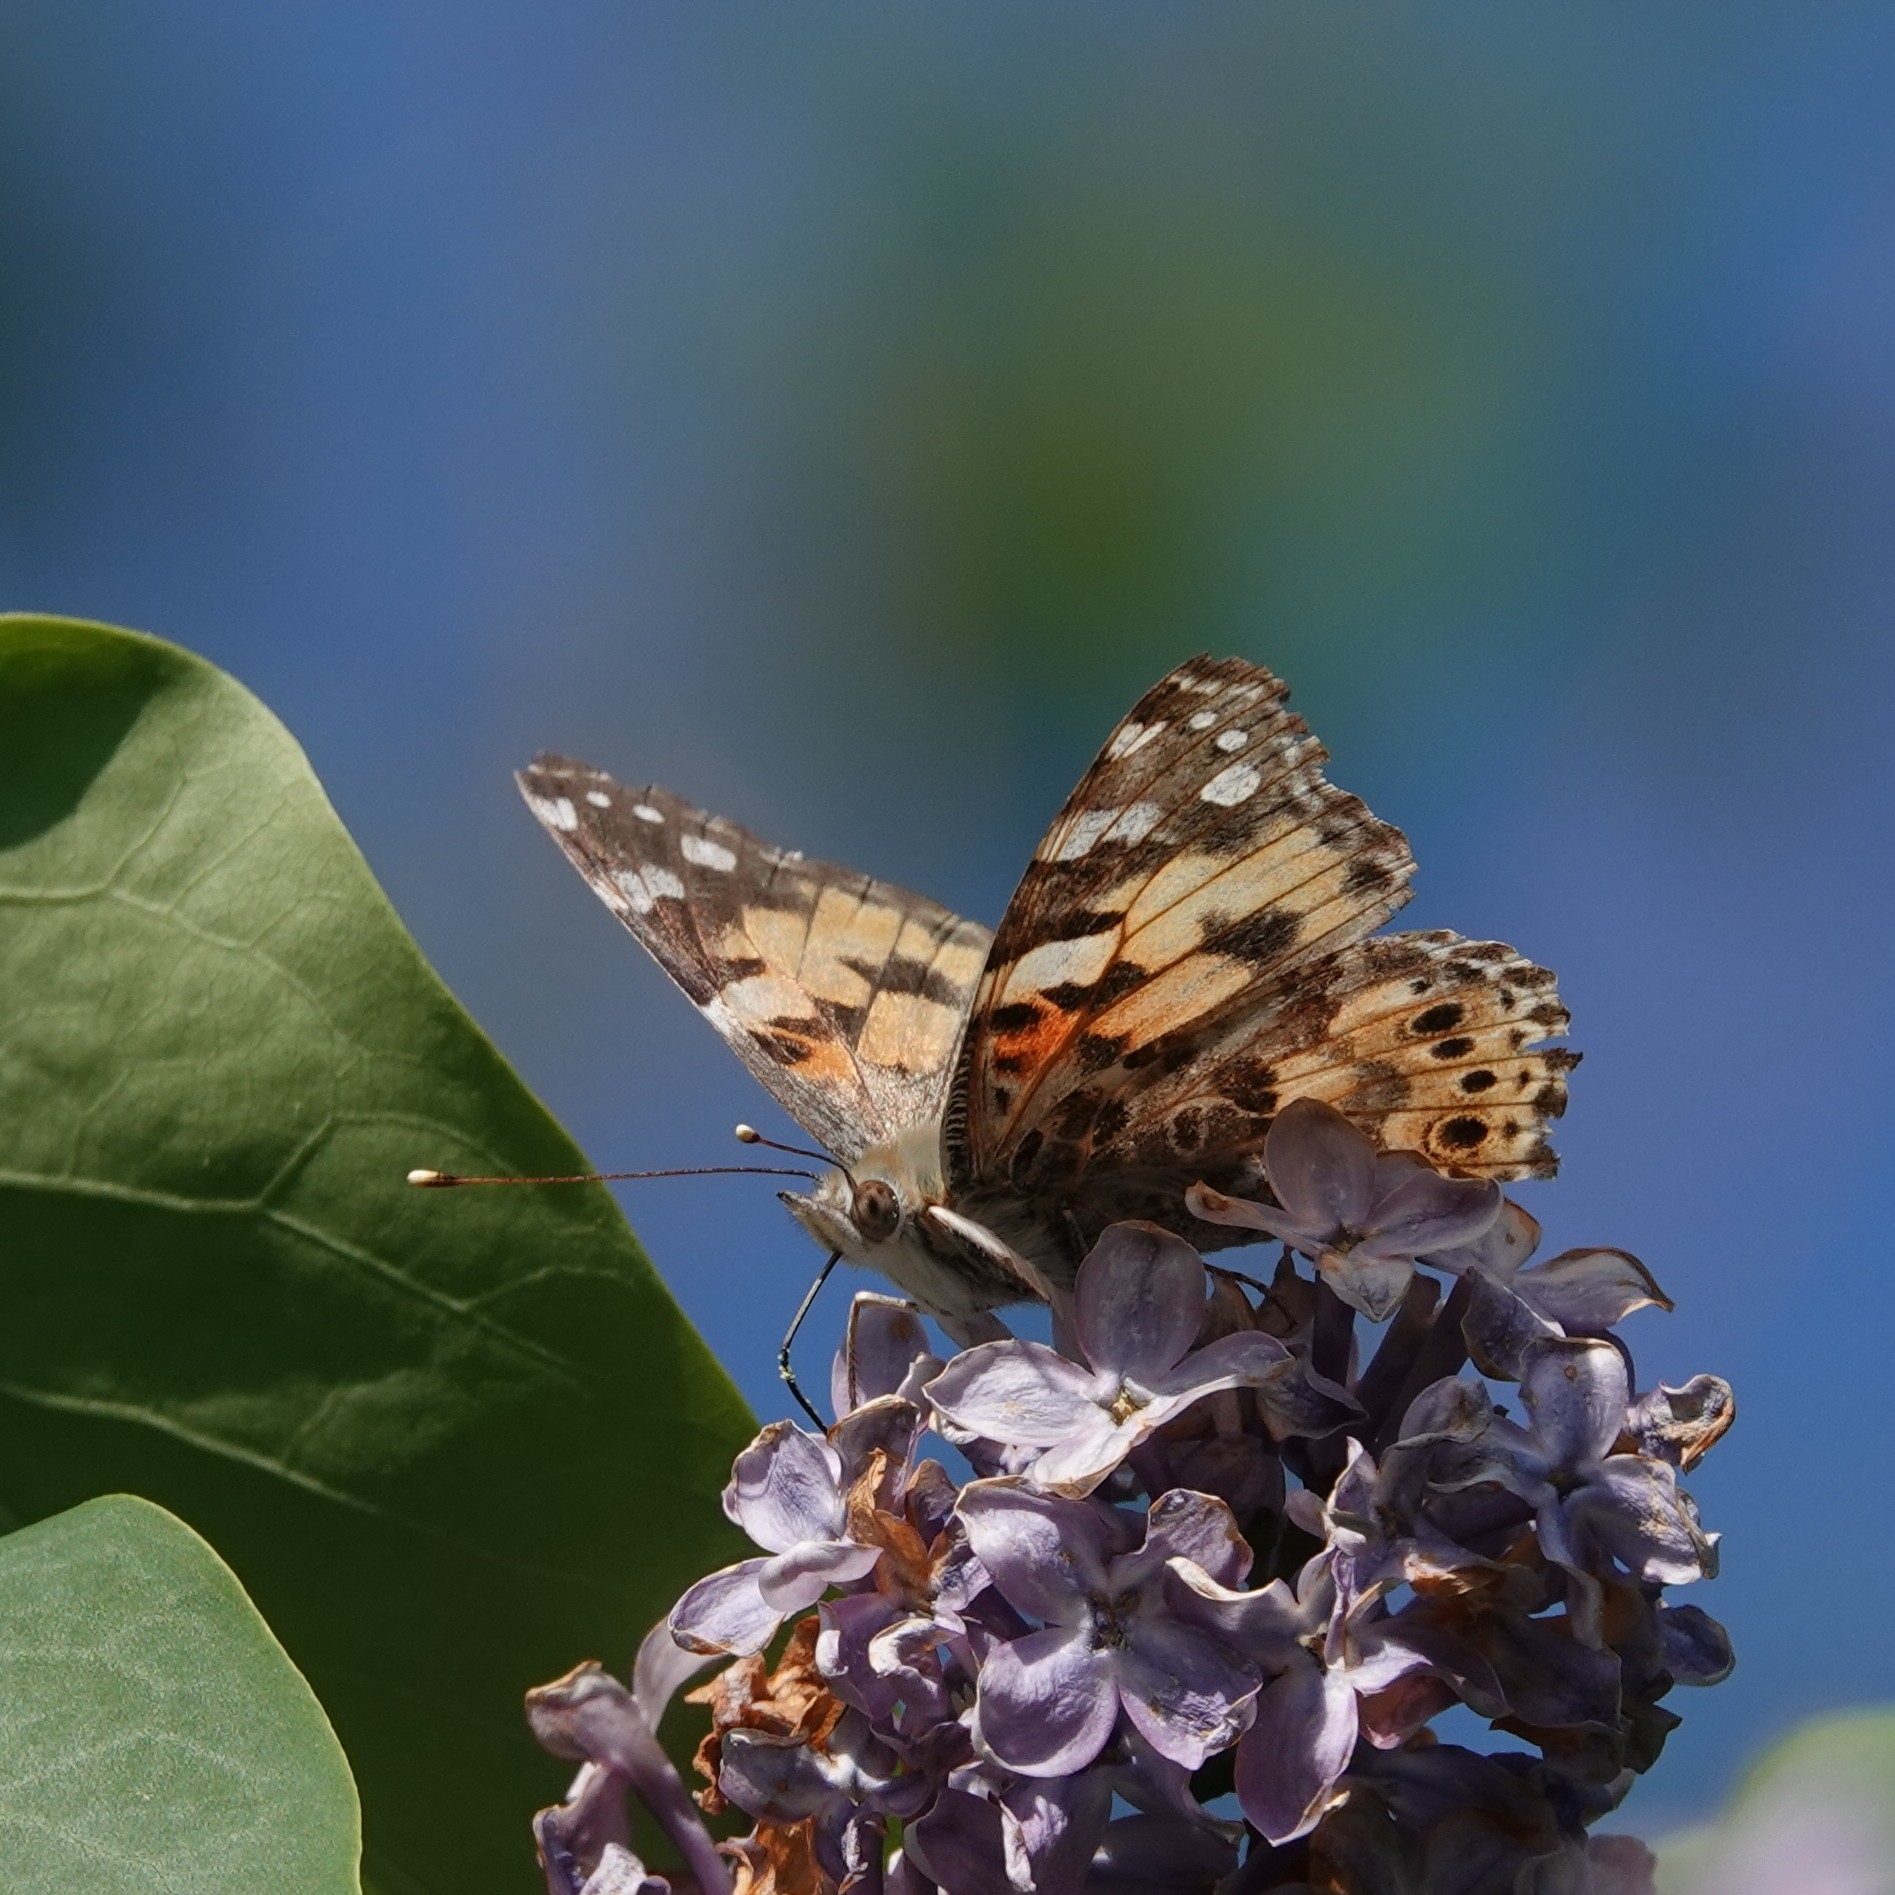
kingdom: Animalia
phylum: Arthropoda
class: Insecta
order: Lepidoptera
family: Nymphalidae
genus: Vanessa
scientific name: Vanessa cardui
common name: Painted lady
